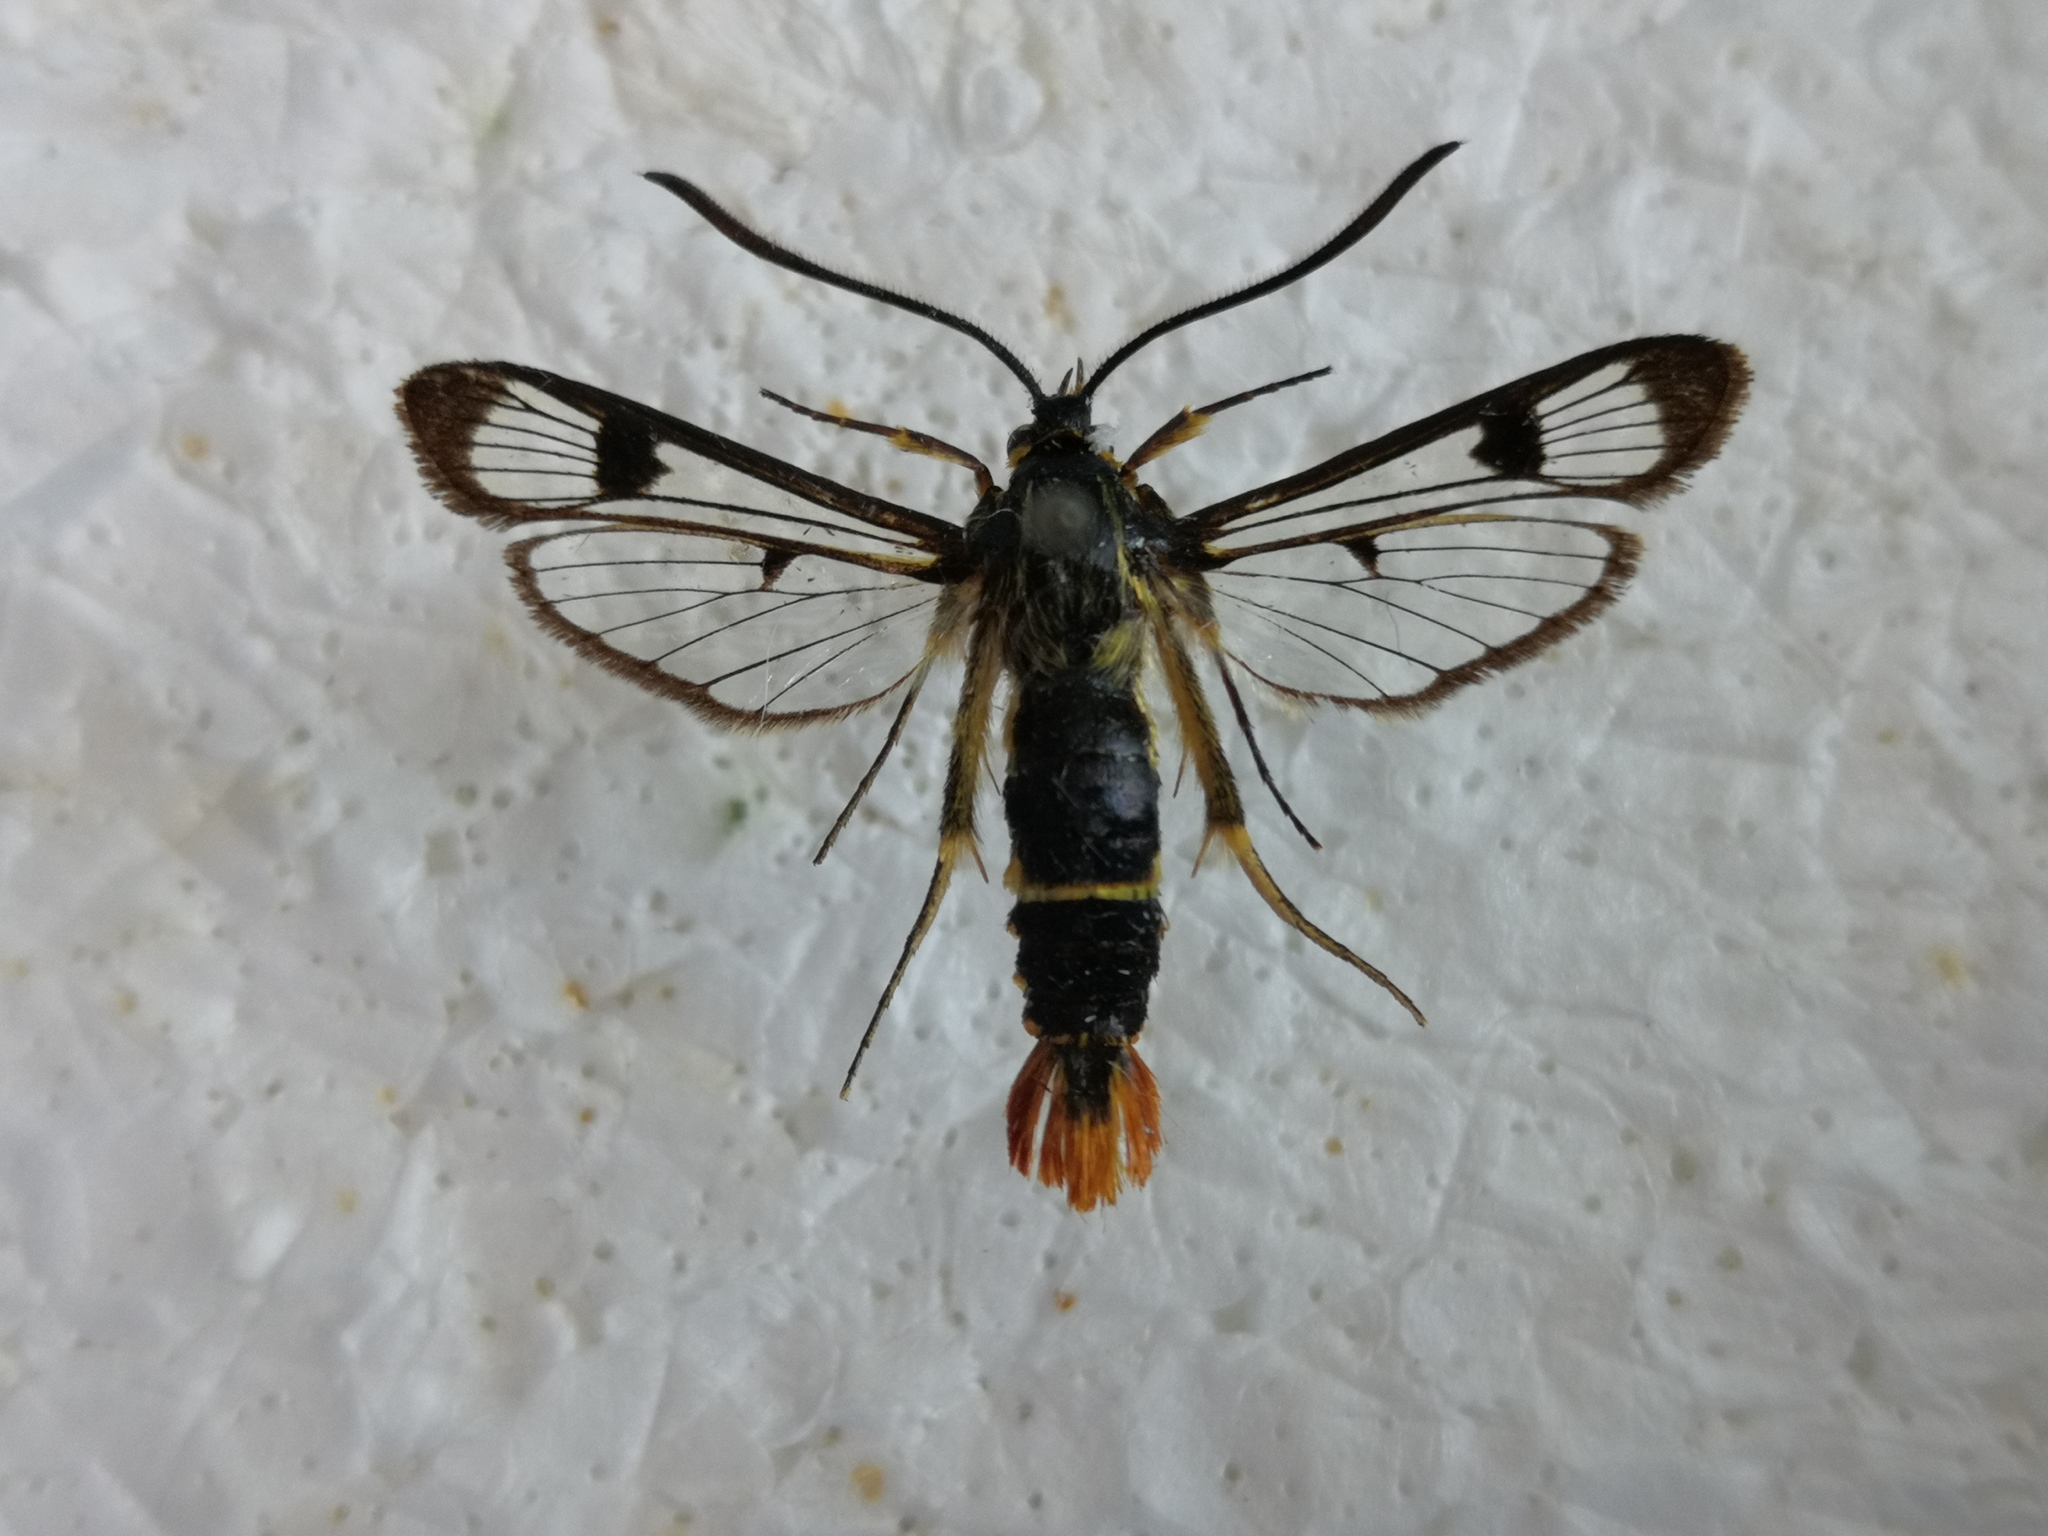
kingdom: Animalia
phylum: Arthropoda
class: Insecta
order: Lepidoptera
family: Sesiidae
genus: Synanthedon
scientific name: Synanthedon scoliaeformis
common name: Welsh clearwing
